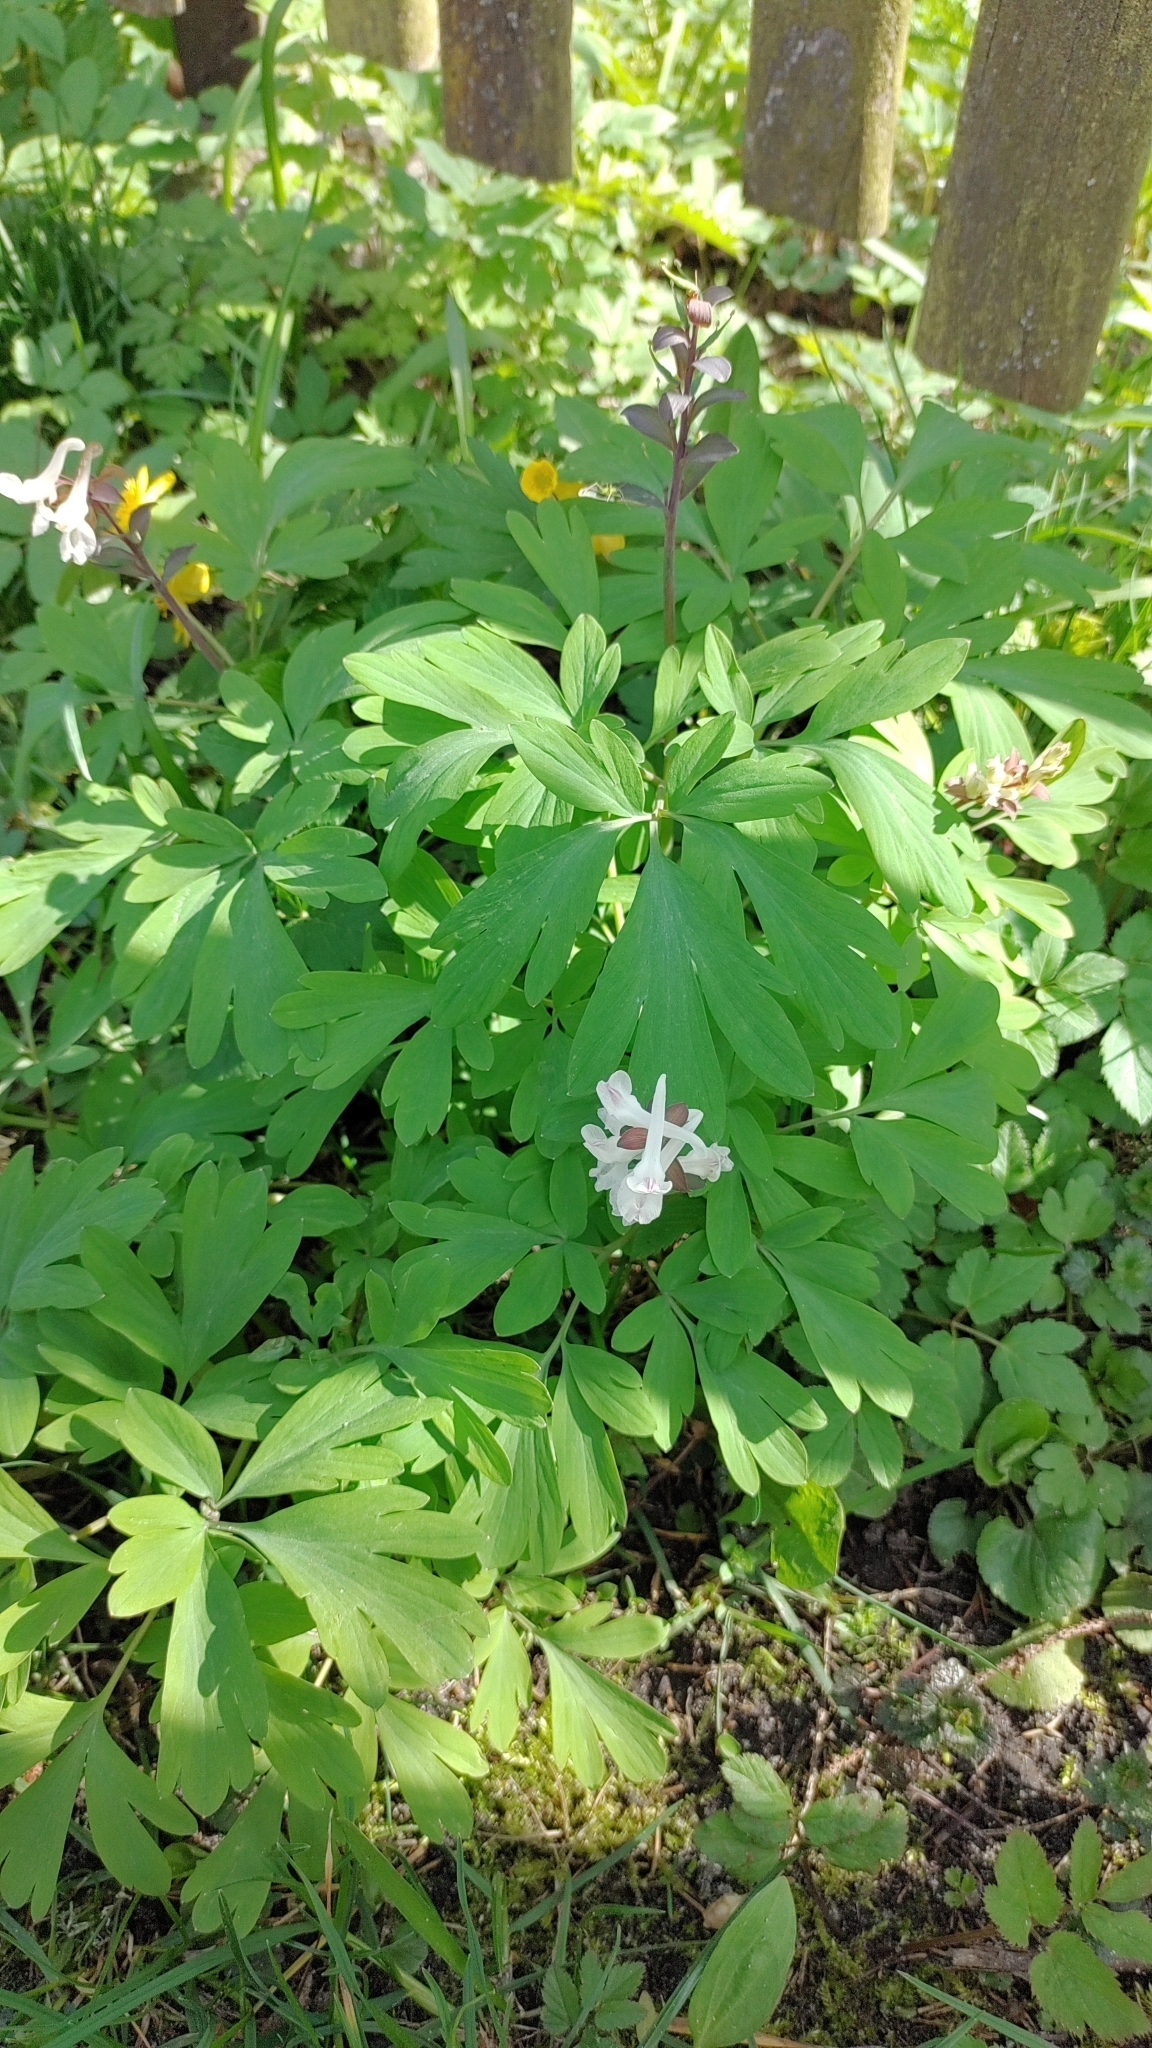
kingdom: Plantae
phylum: Tracheophyta
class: Magnoliopsida
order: Ranunculales
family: Papaveraceae
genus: Corydalis
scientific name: Corydalis cava
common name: Hollowroot
